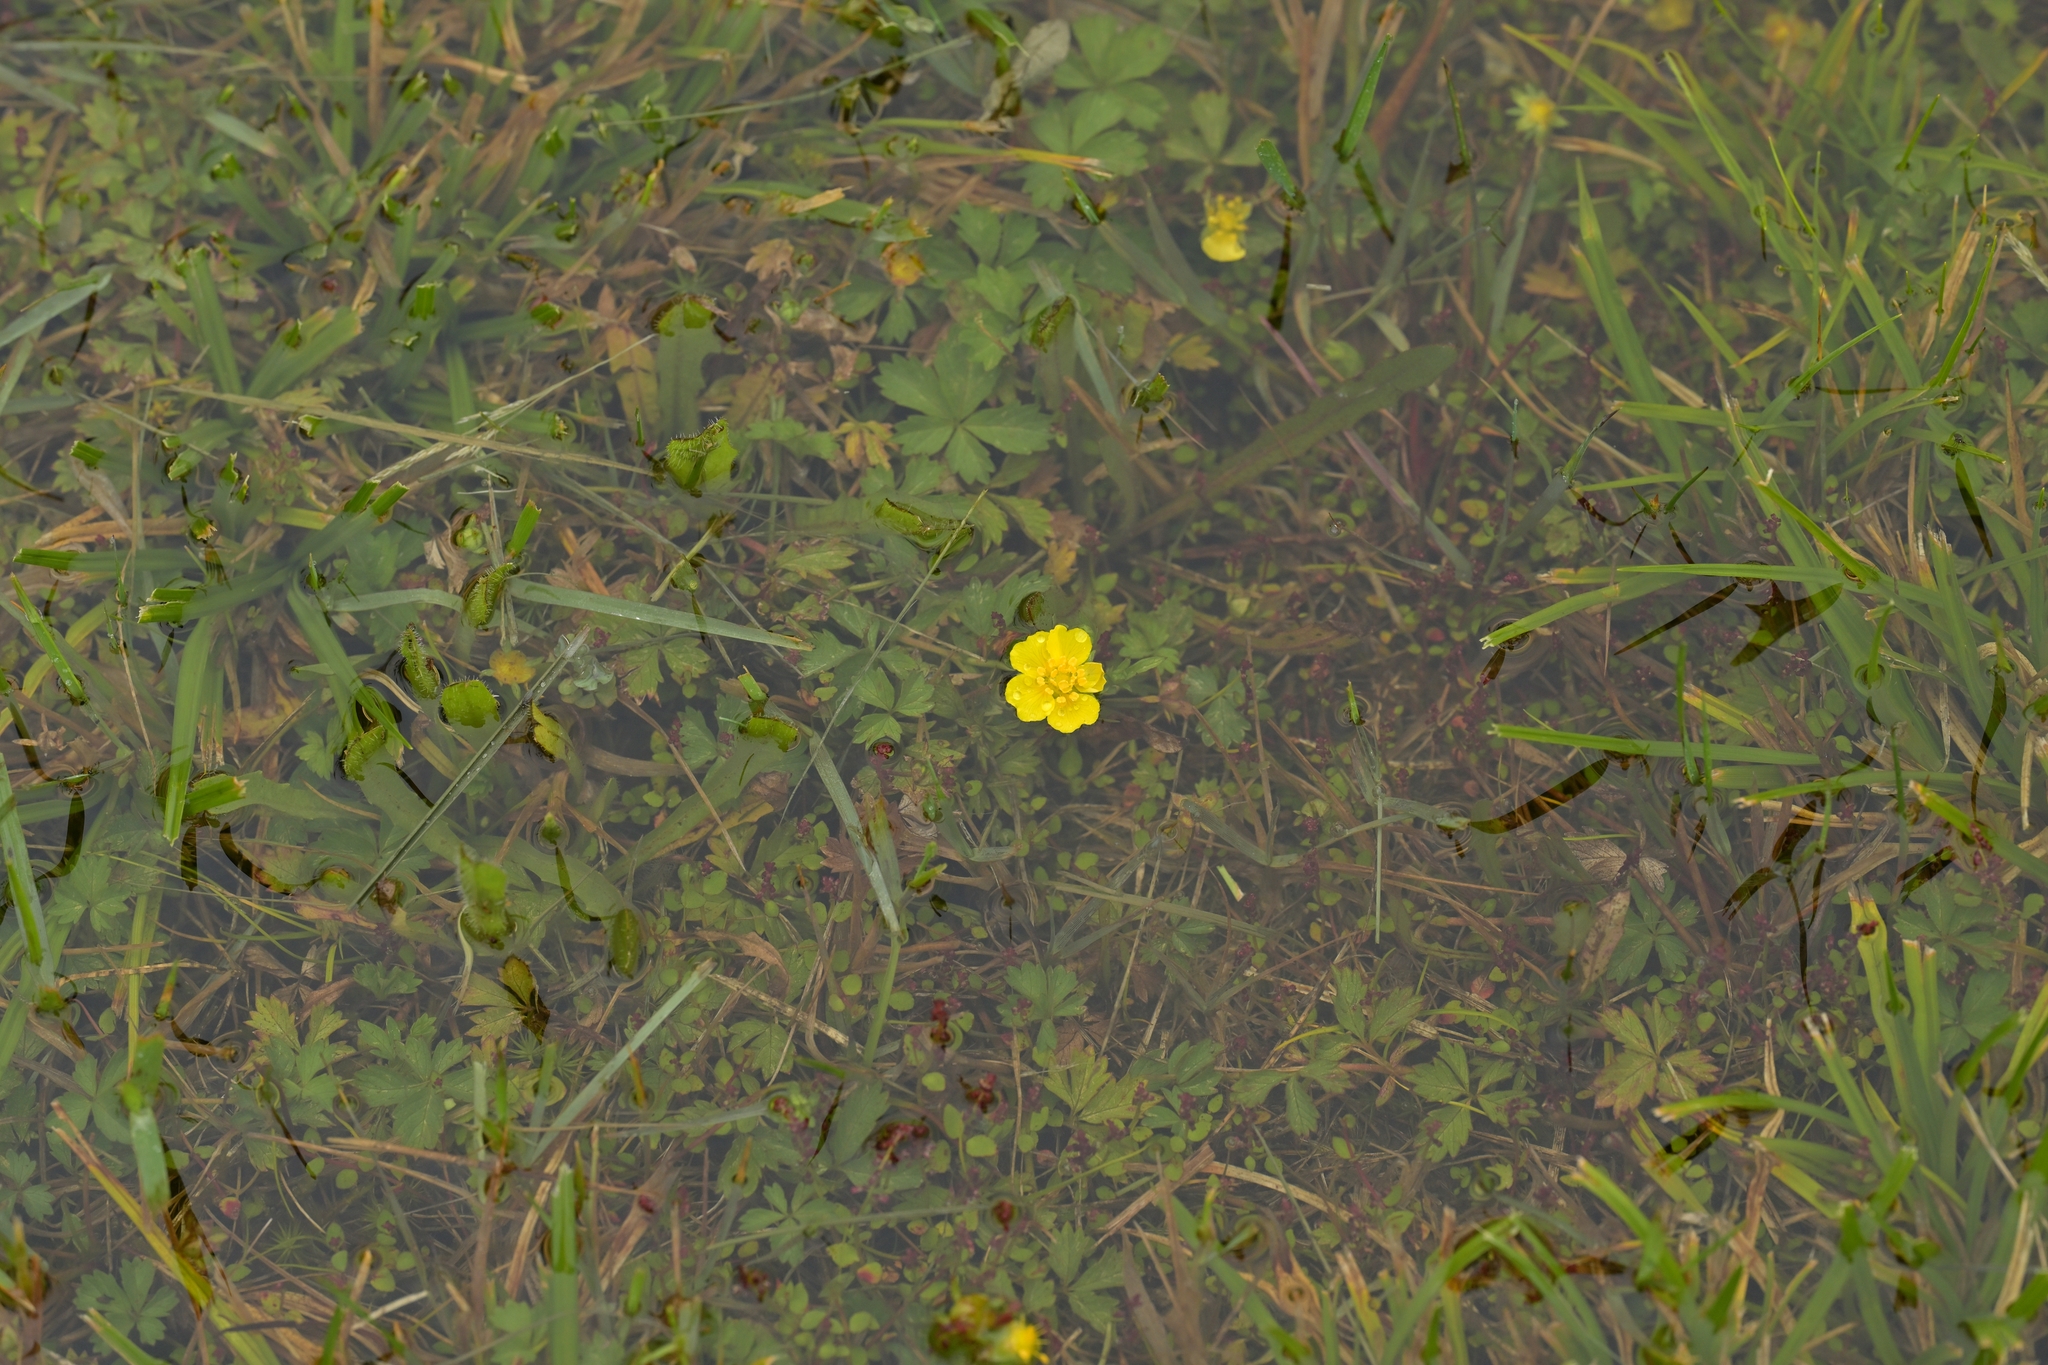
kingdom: Plantae
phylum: Tracheophyta
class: Magnoliopsida
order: Rosales
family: Rosaceae
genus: Potentilla
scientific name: Potentilla anglica
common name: Trailing tormentil
